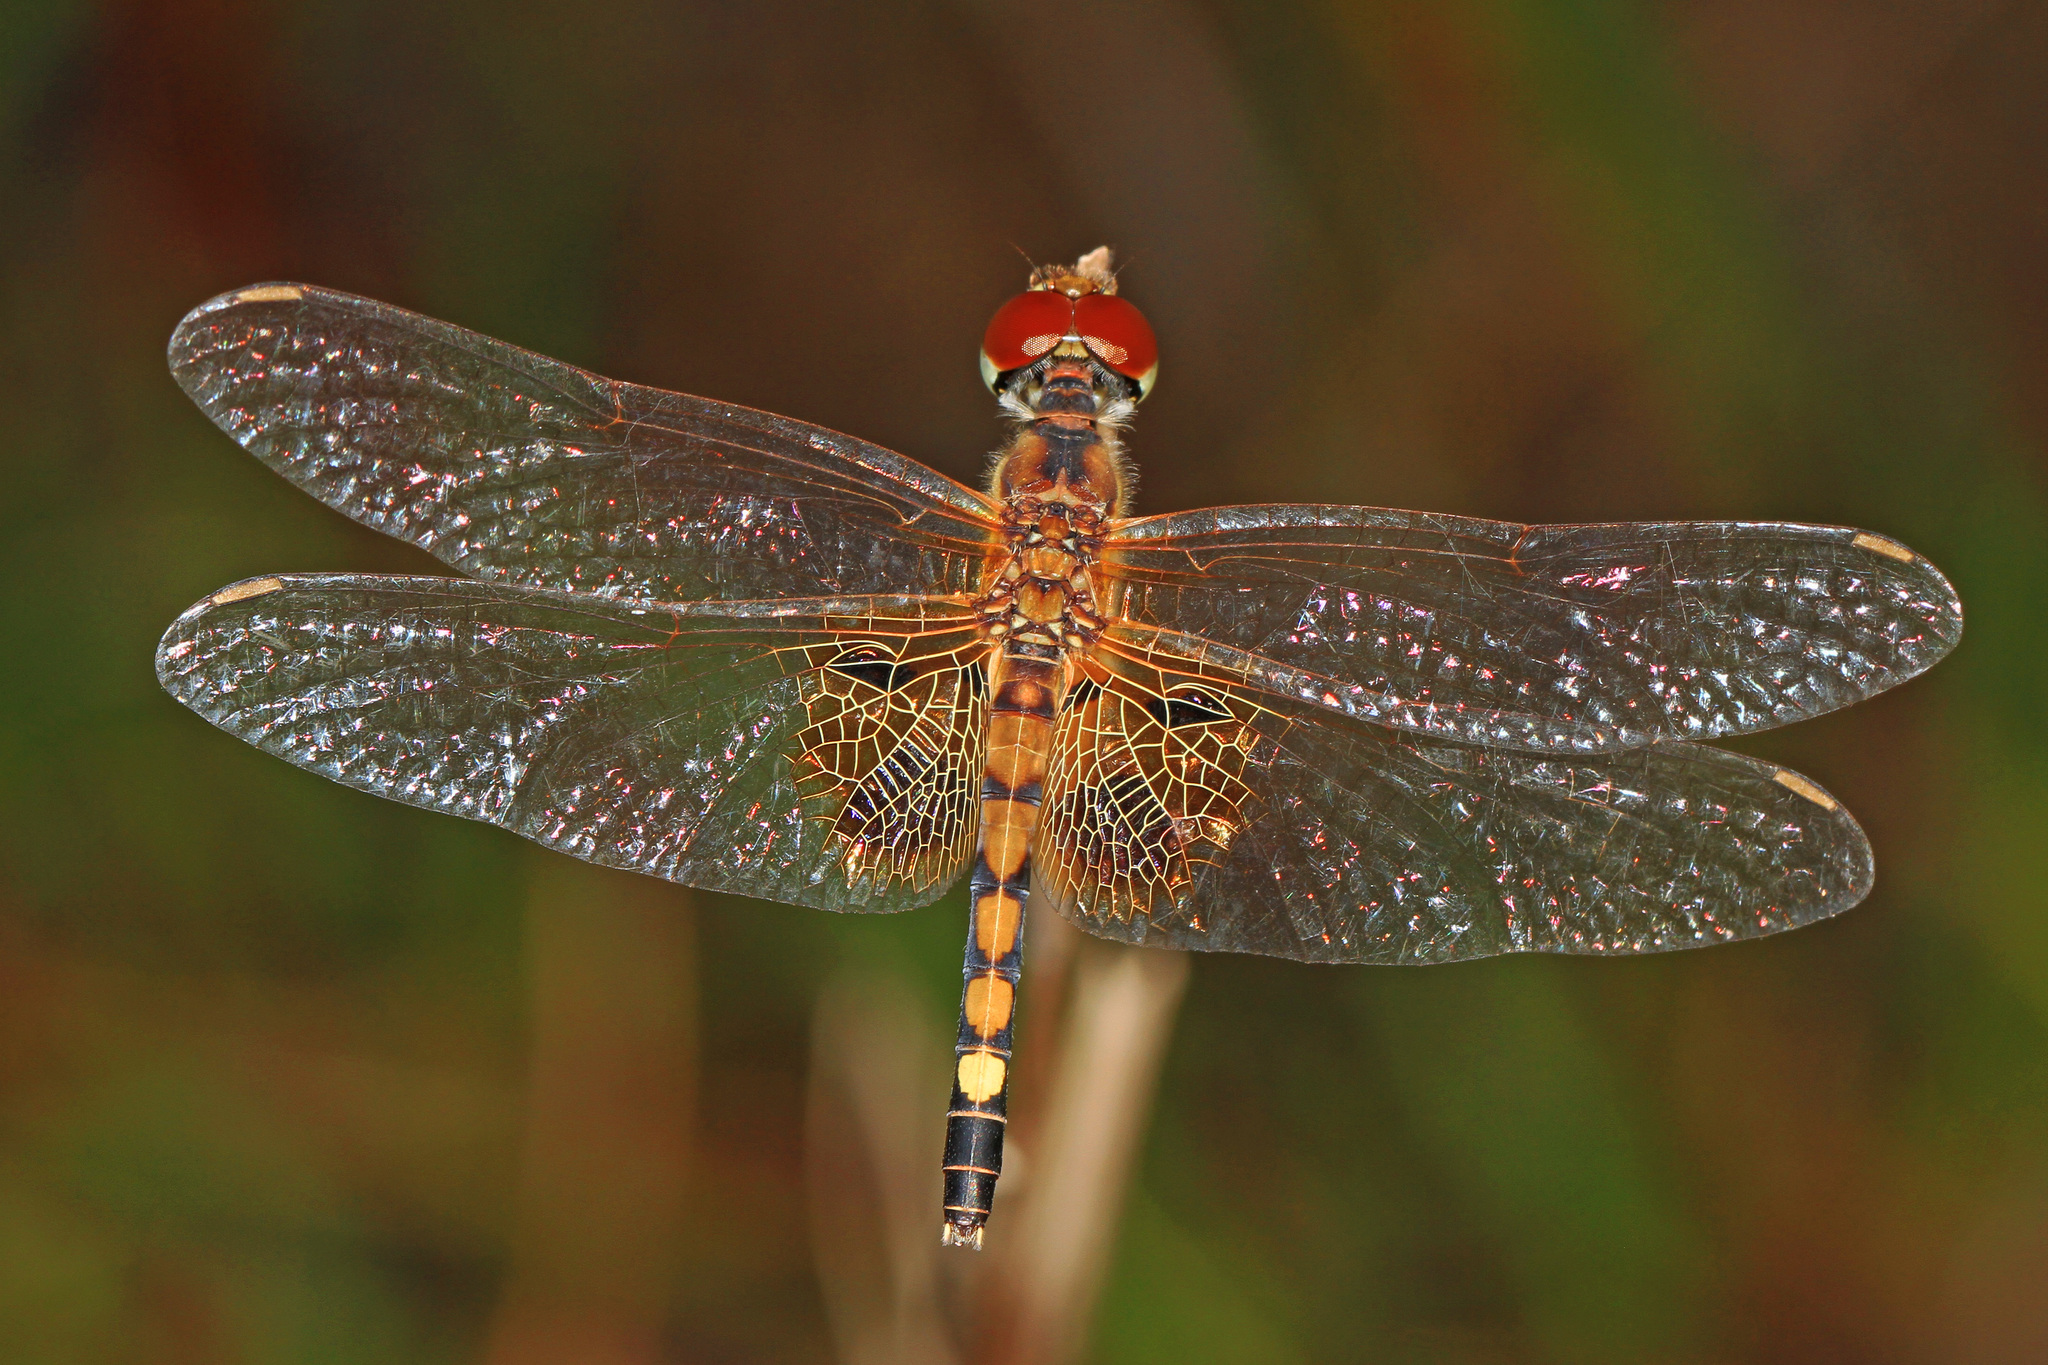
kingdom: Animalia
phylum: Arthropoda
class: Insecta
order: Odonata
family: Libellulidae
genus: Celithemis
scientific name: Celithemis amanda
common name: Amanda's pennant
